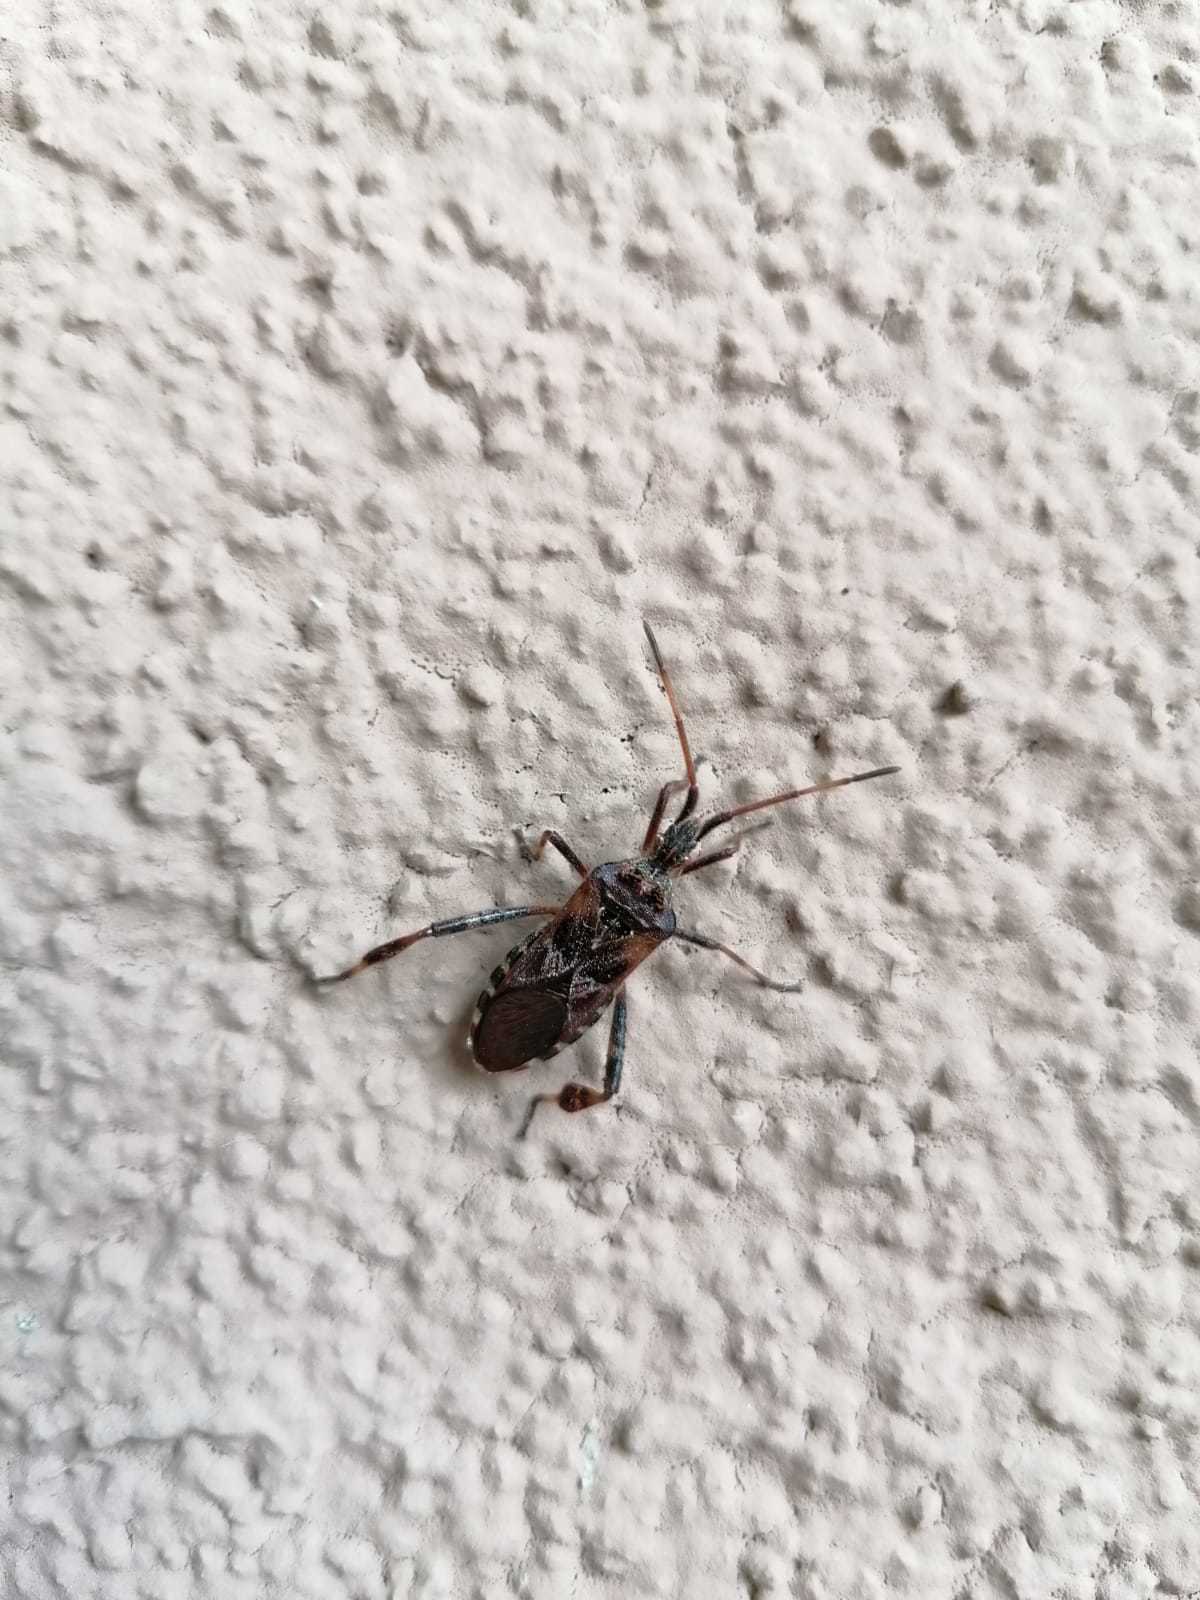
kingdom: Animalia
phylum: Arthropoda
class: Insecta
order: Hemiptera
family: Coreidae
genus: Leptoglossus
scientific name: Leptoglossus occidentalis
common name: Western conifer-seed bug
